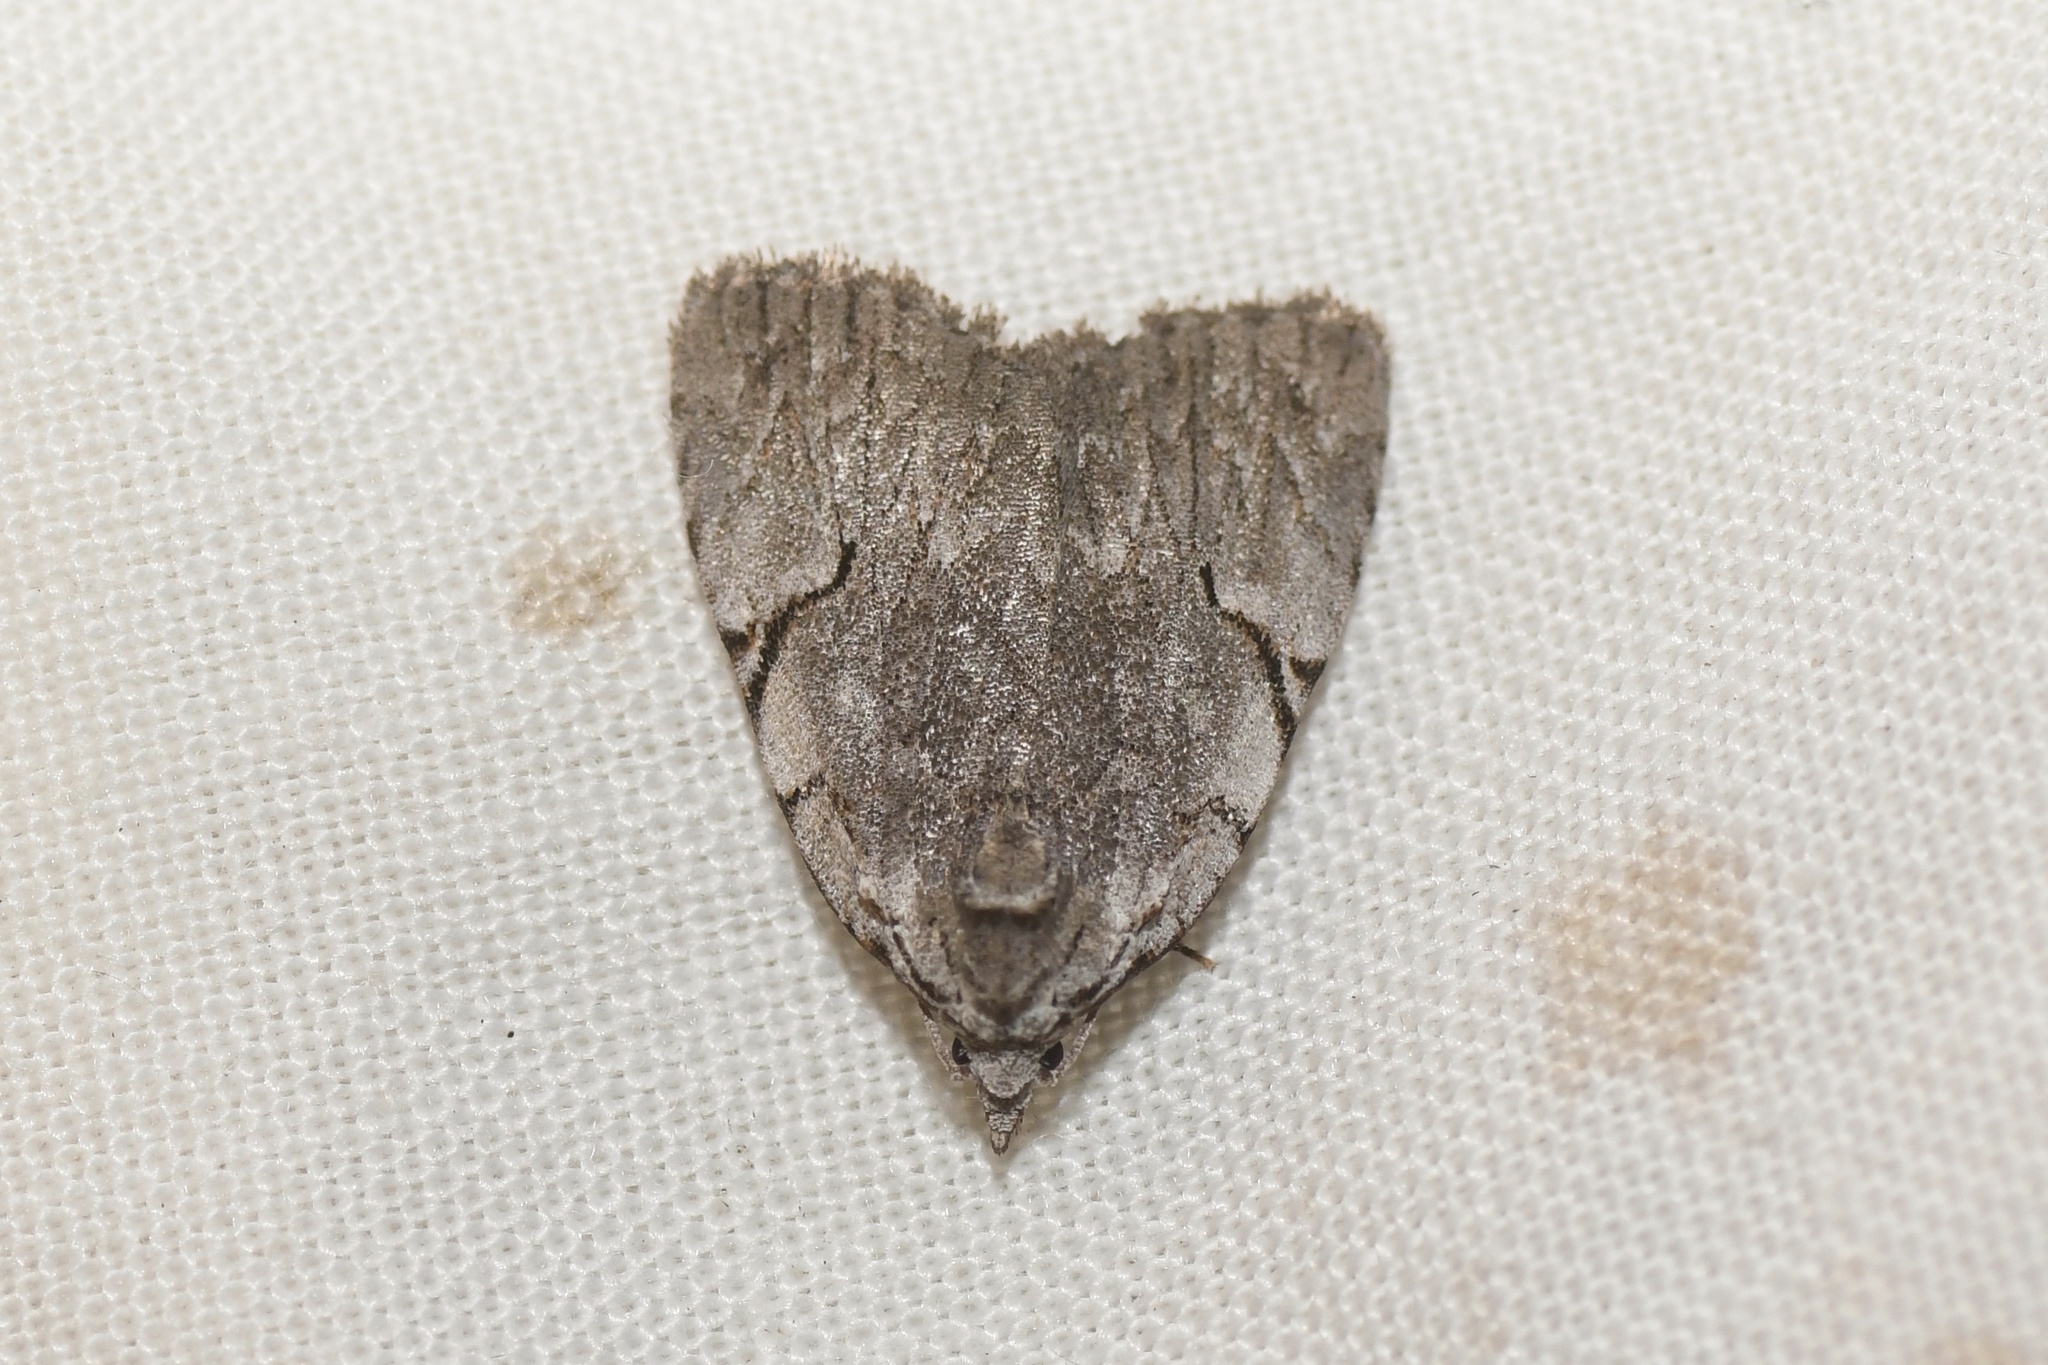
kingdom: Animalia
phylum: Arthropoda
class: Insecta
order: Lepidoptera
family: Noctuidae
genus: Balsa
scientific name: Balsa tristrigella
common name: Three-lined balsa moth
